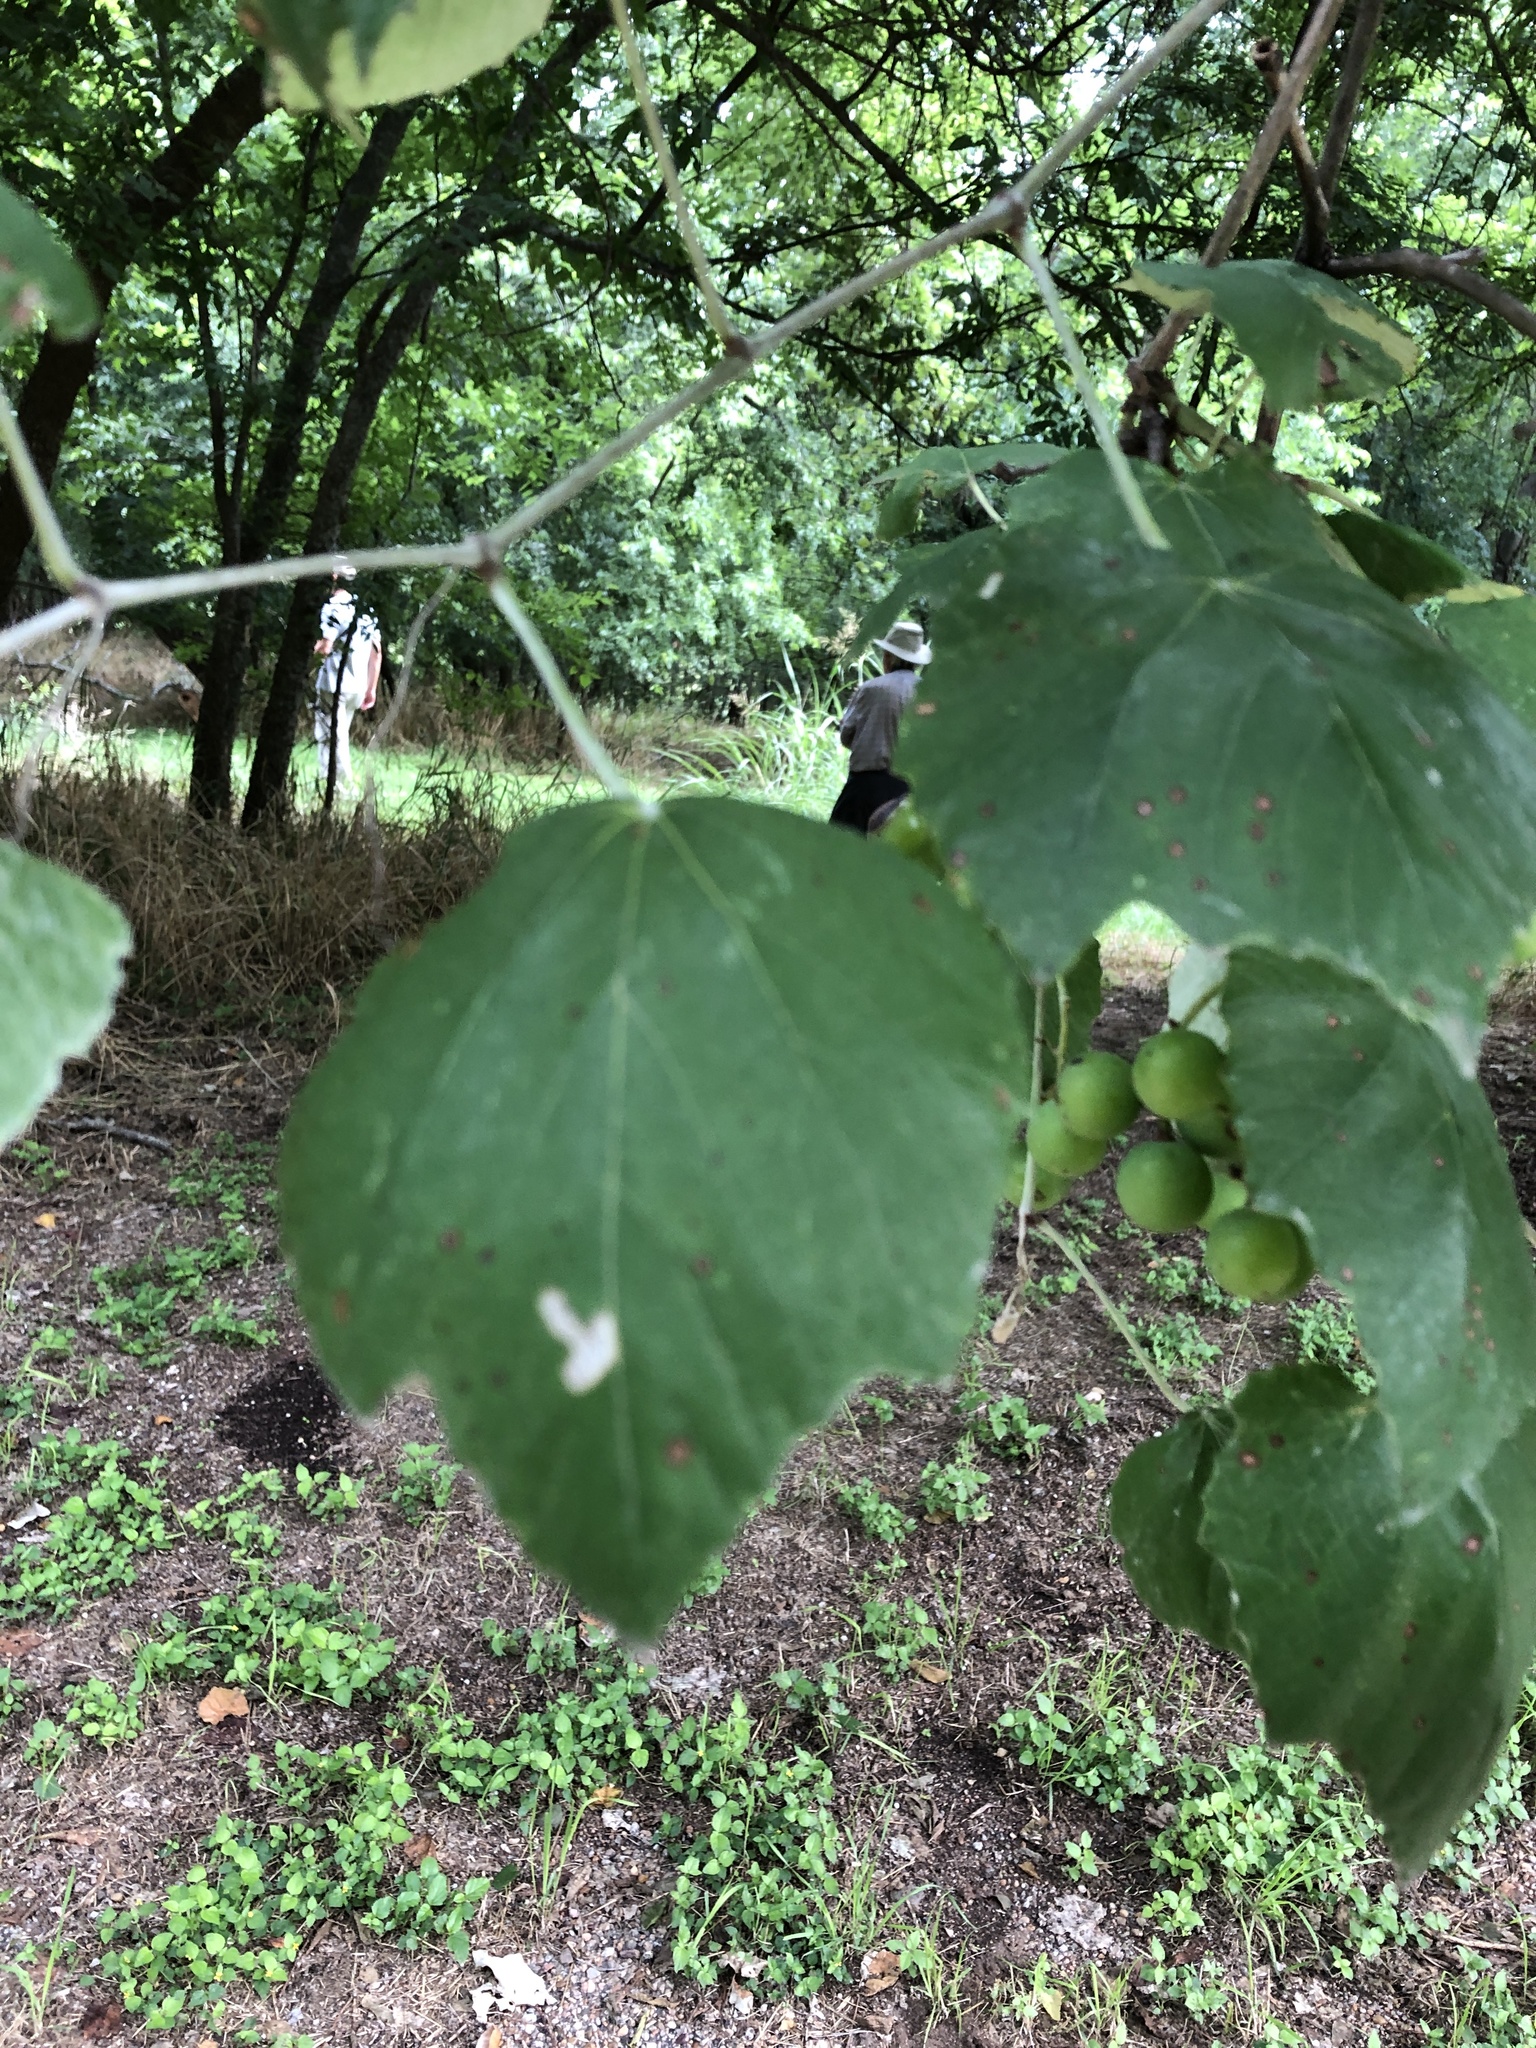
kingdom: Plantae
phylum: Tracheophyta
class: Magnoliopsida
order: Vitales
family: Vitaceae
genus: Vitis
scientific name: Vitis mustangensis
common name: Mustang grape
